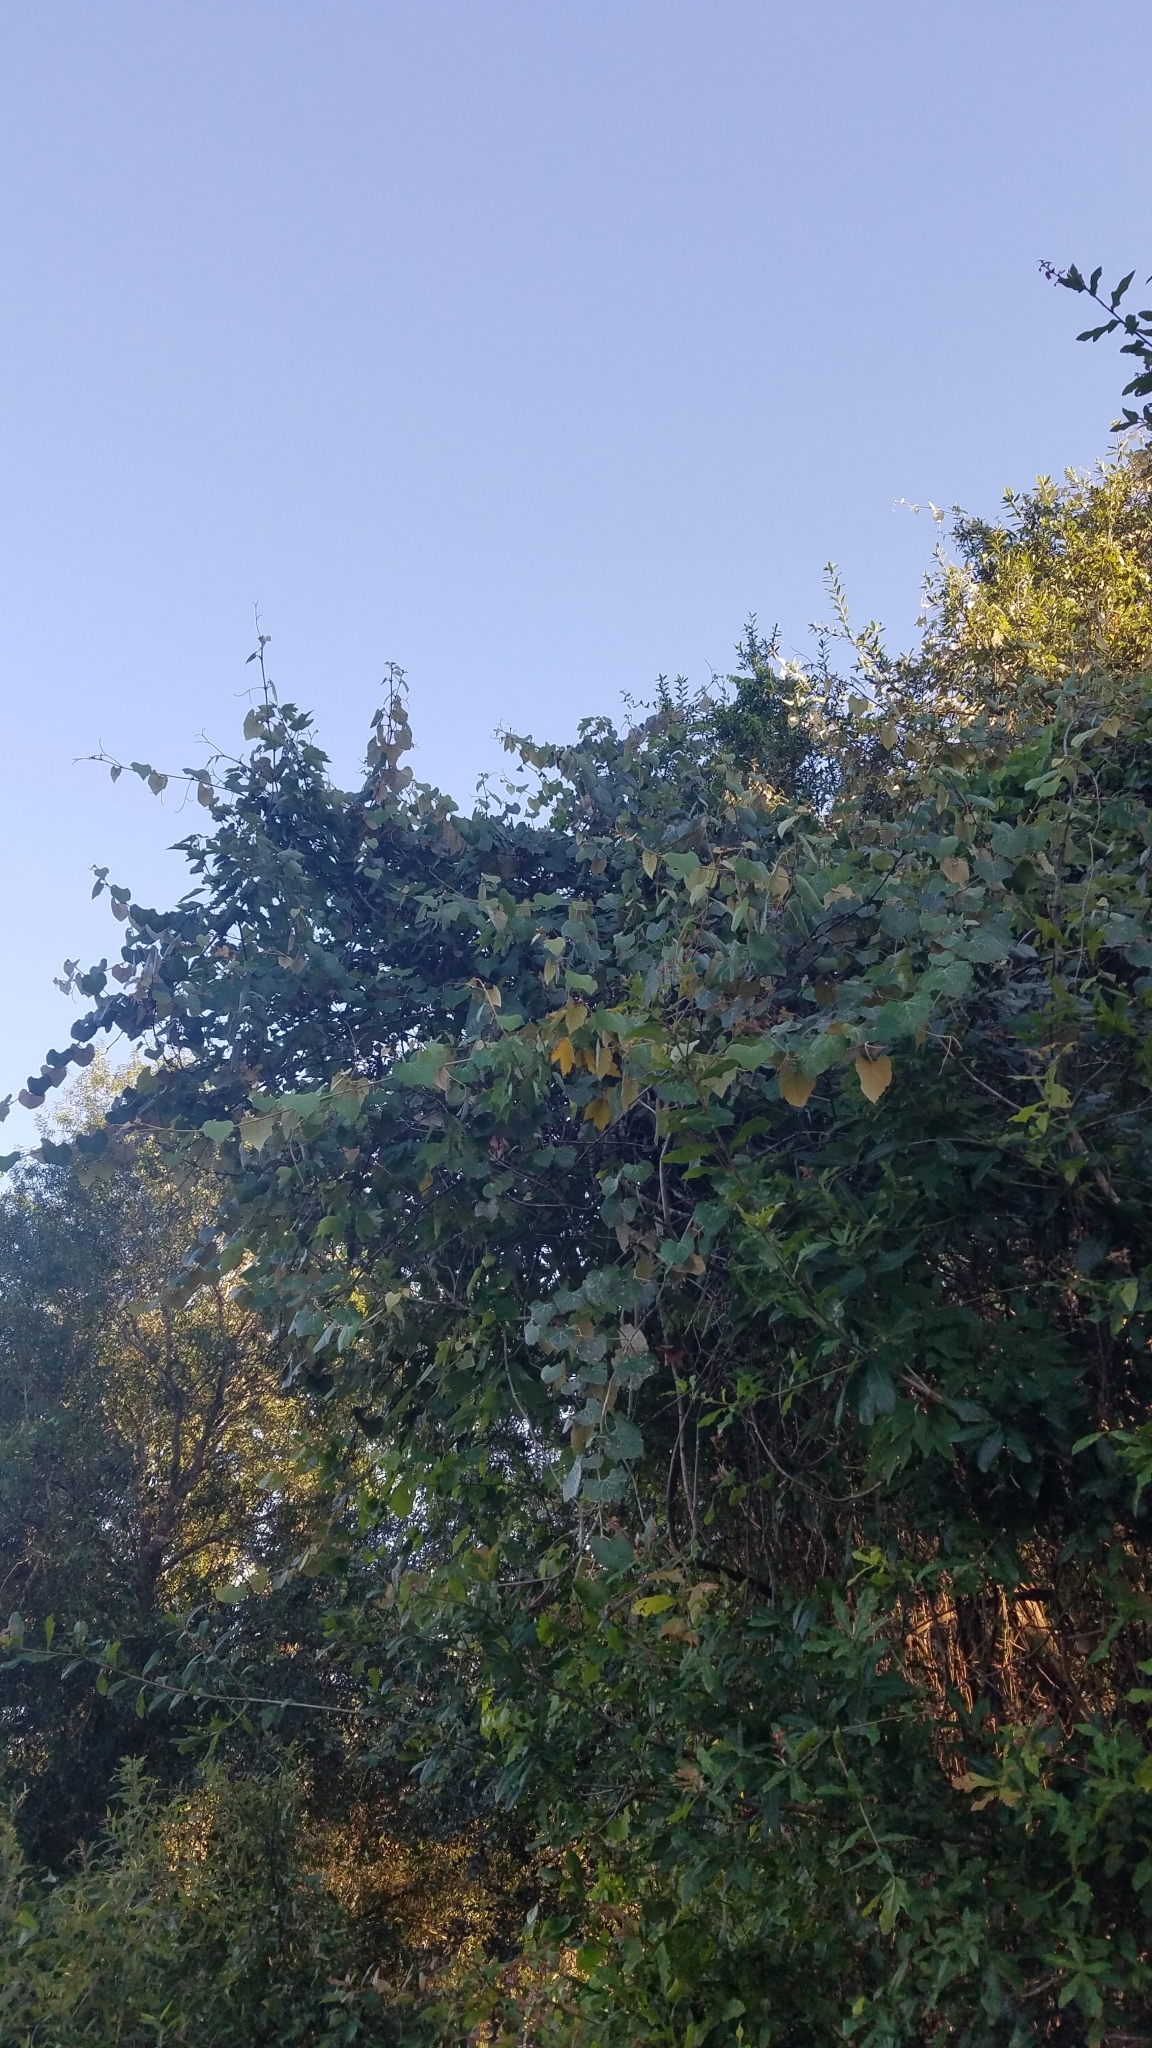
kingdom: Plantae
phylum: Tracheophyta
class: Magnoliopsida
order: Vitales
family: Vitaceae
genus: Vitis
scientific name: Vitis shuttleworthii
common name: Caloosa grape
